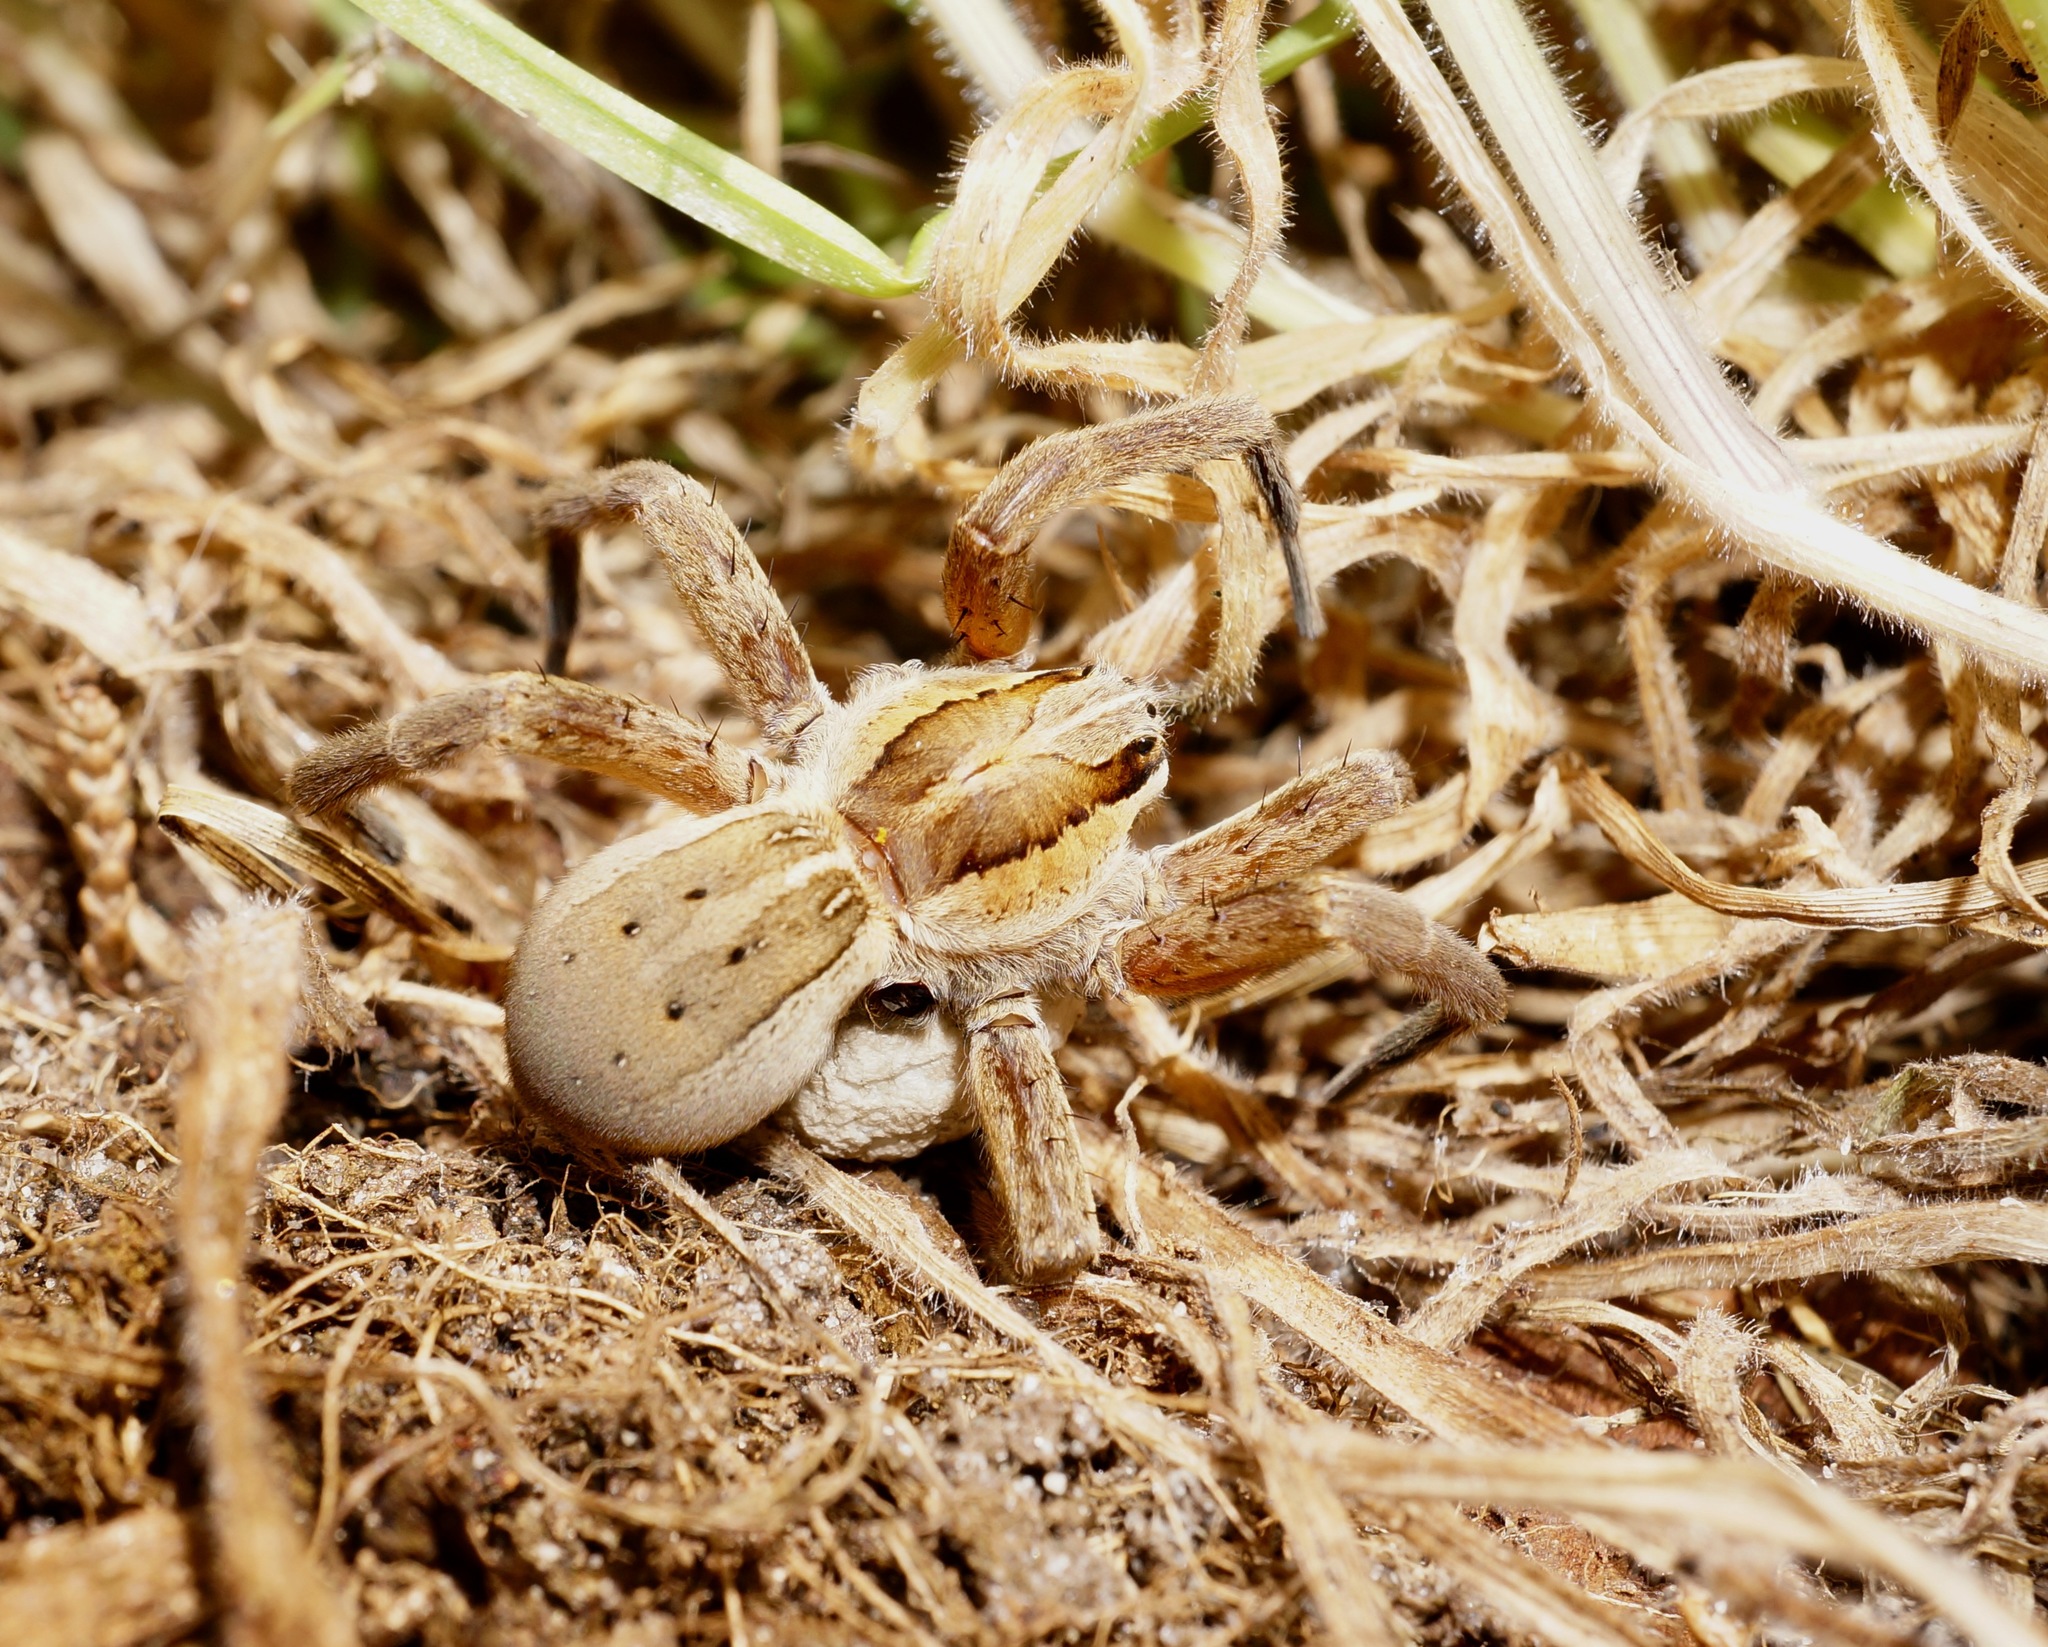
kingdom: Animalia
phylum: Arthropoda
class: Arachnida
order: Araneae
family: Pisauridae
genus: Dolomedes
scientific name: Dolomedes minor
